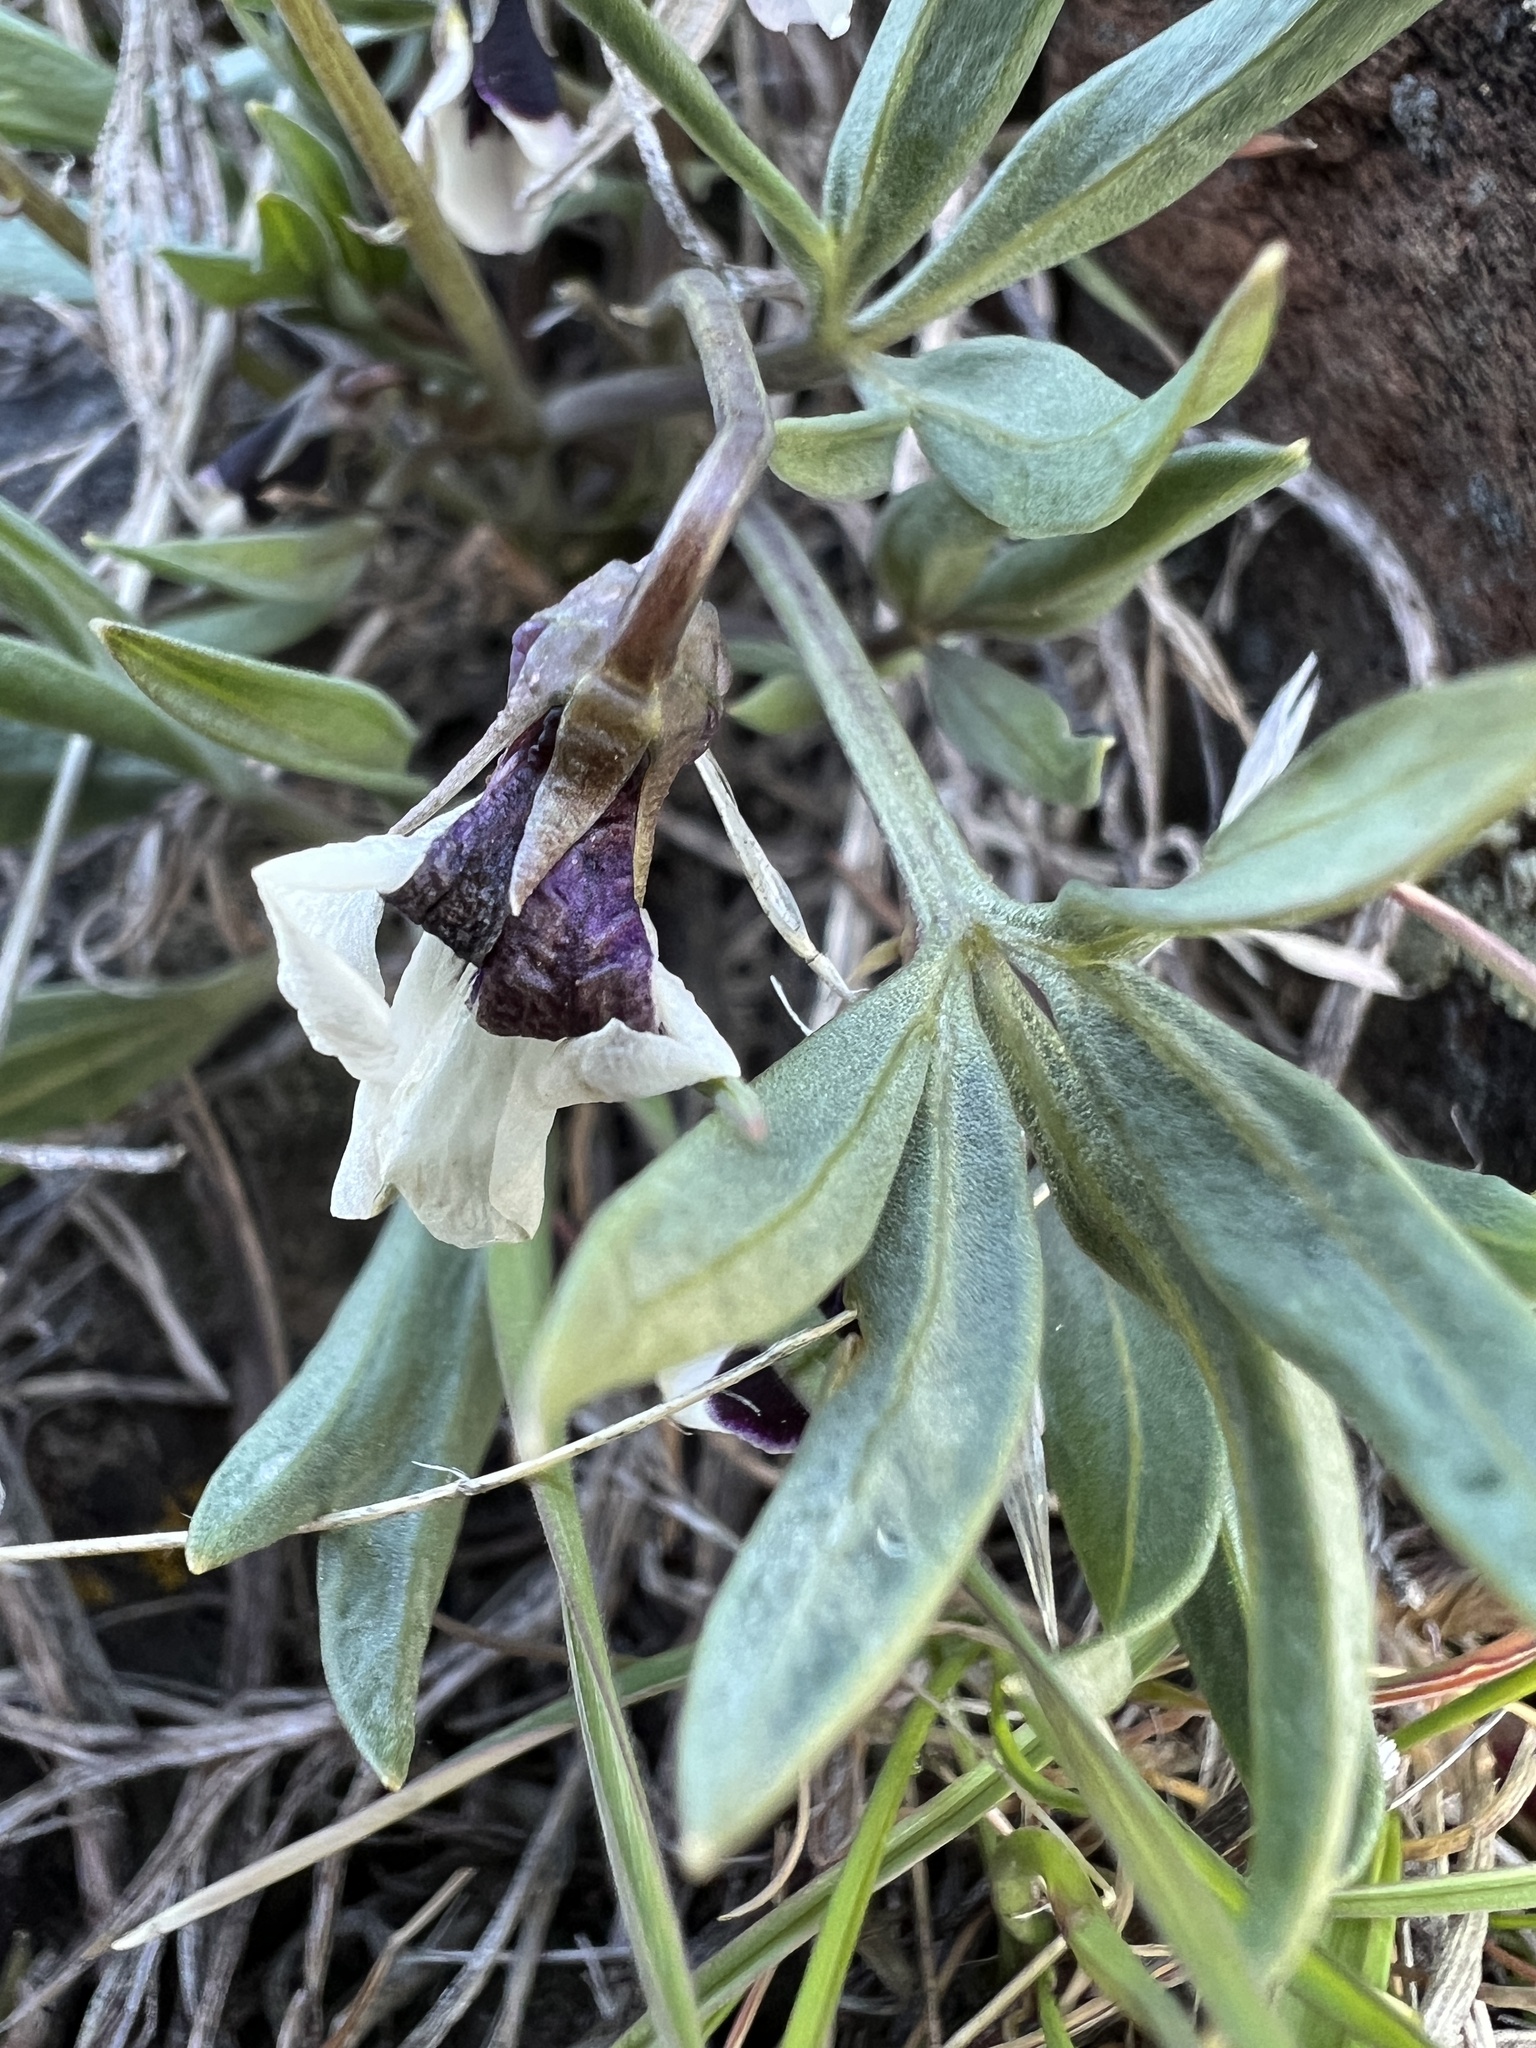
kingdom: Plantae
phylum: Tracheophyta
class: Magnoliopsida
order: Malpighiales
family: Violaceae
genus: Viola
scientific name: Viola trinervata
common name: Sagebrush violet
